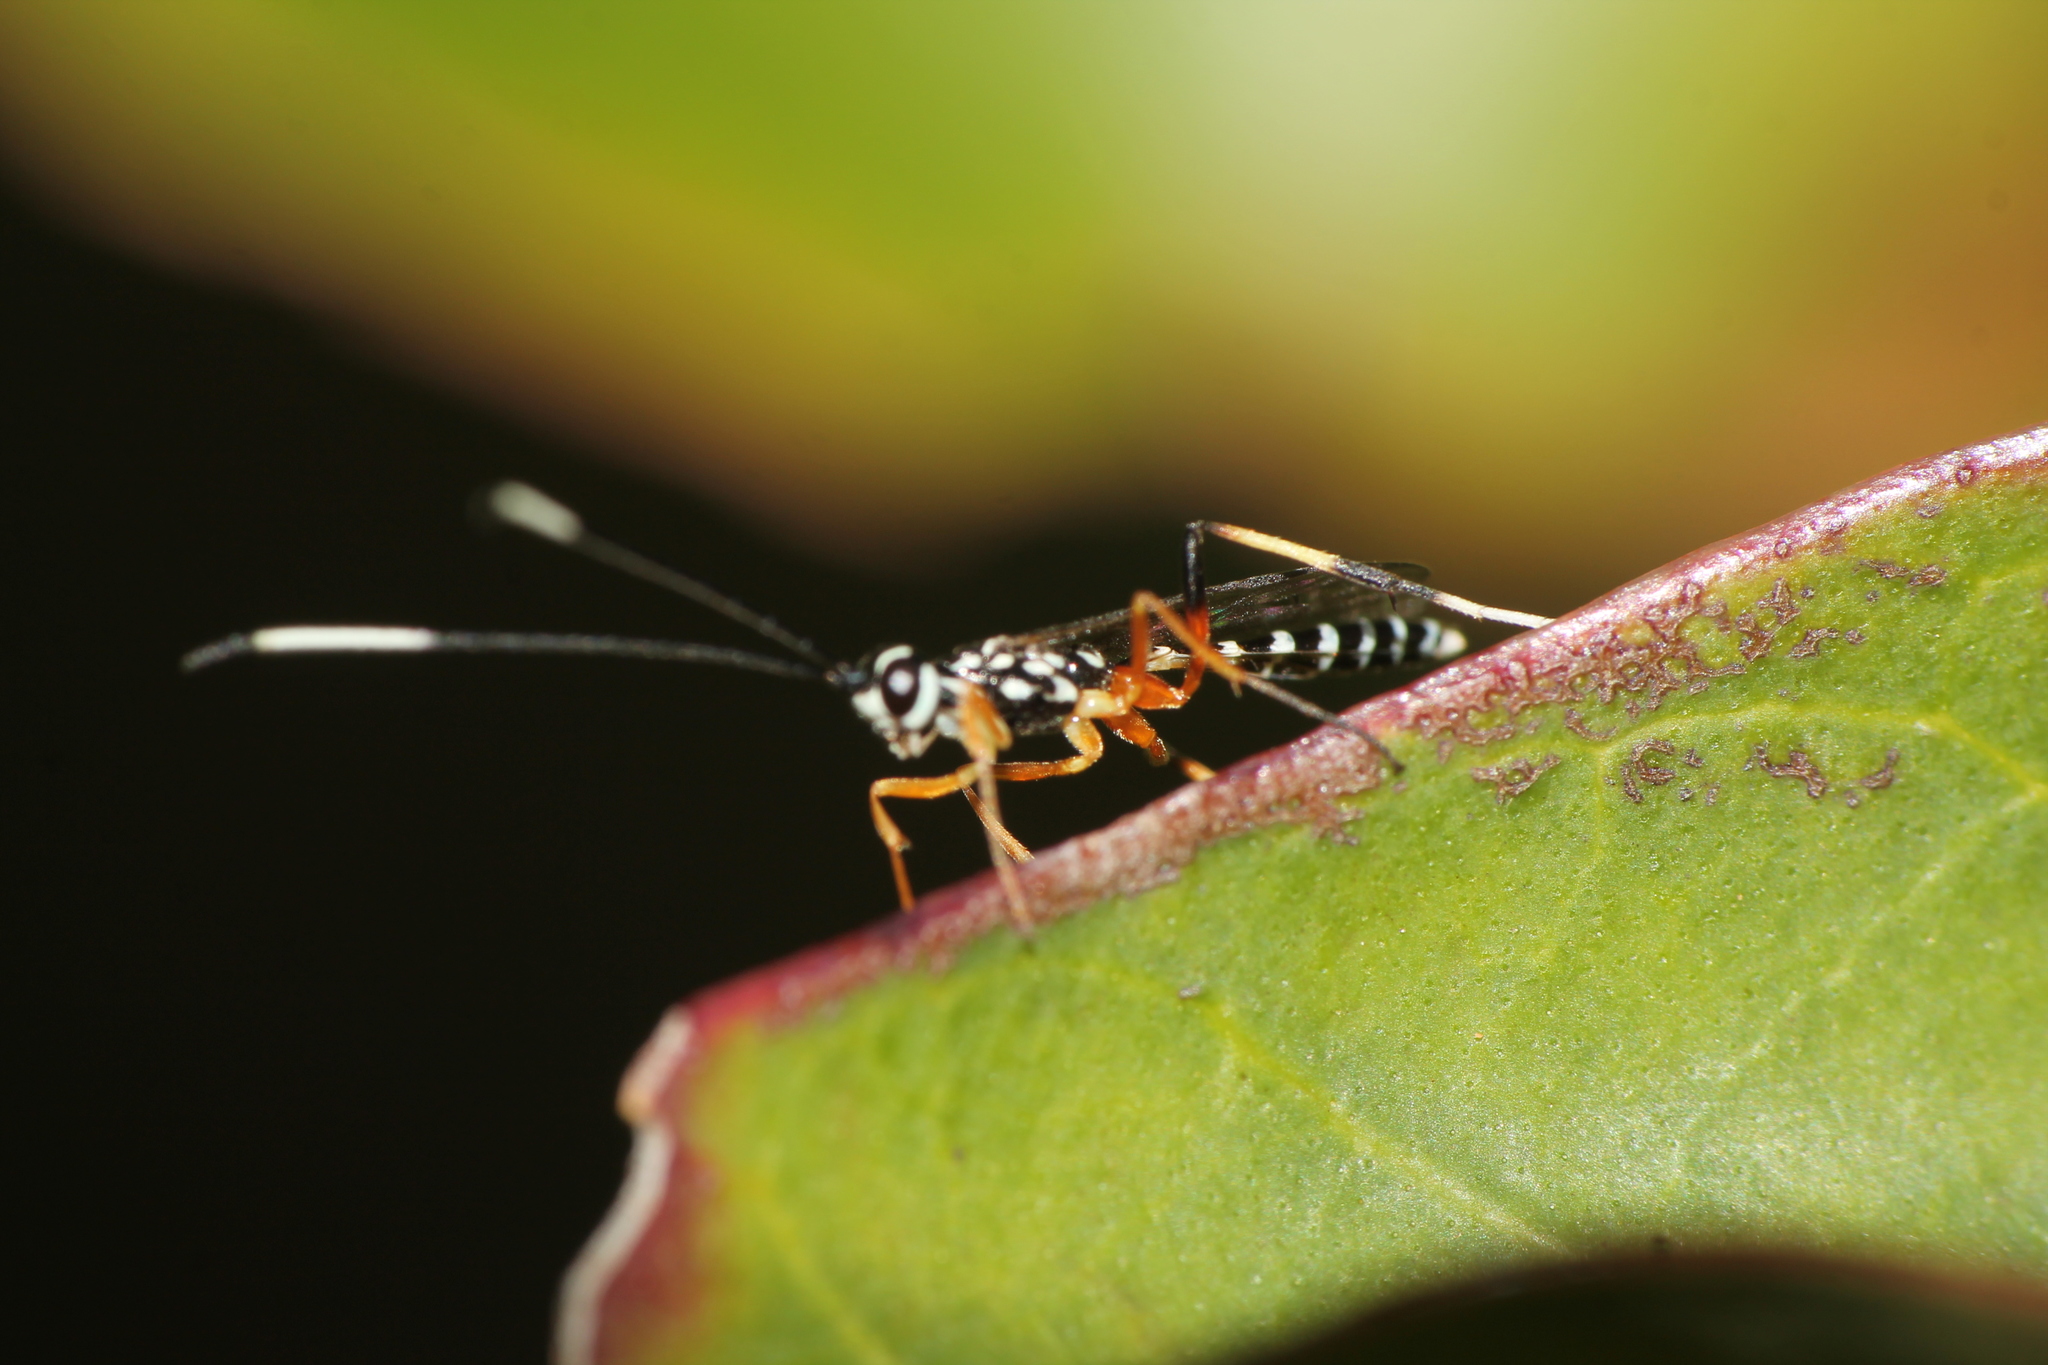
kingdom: Animalia
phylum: Arthropoda
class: Insecta
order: Hymenoptera
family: Ichneumonidae
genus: Xanthocryptus
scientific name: Xanthocryptus novozealandicus
